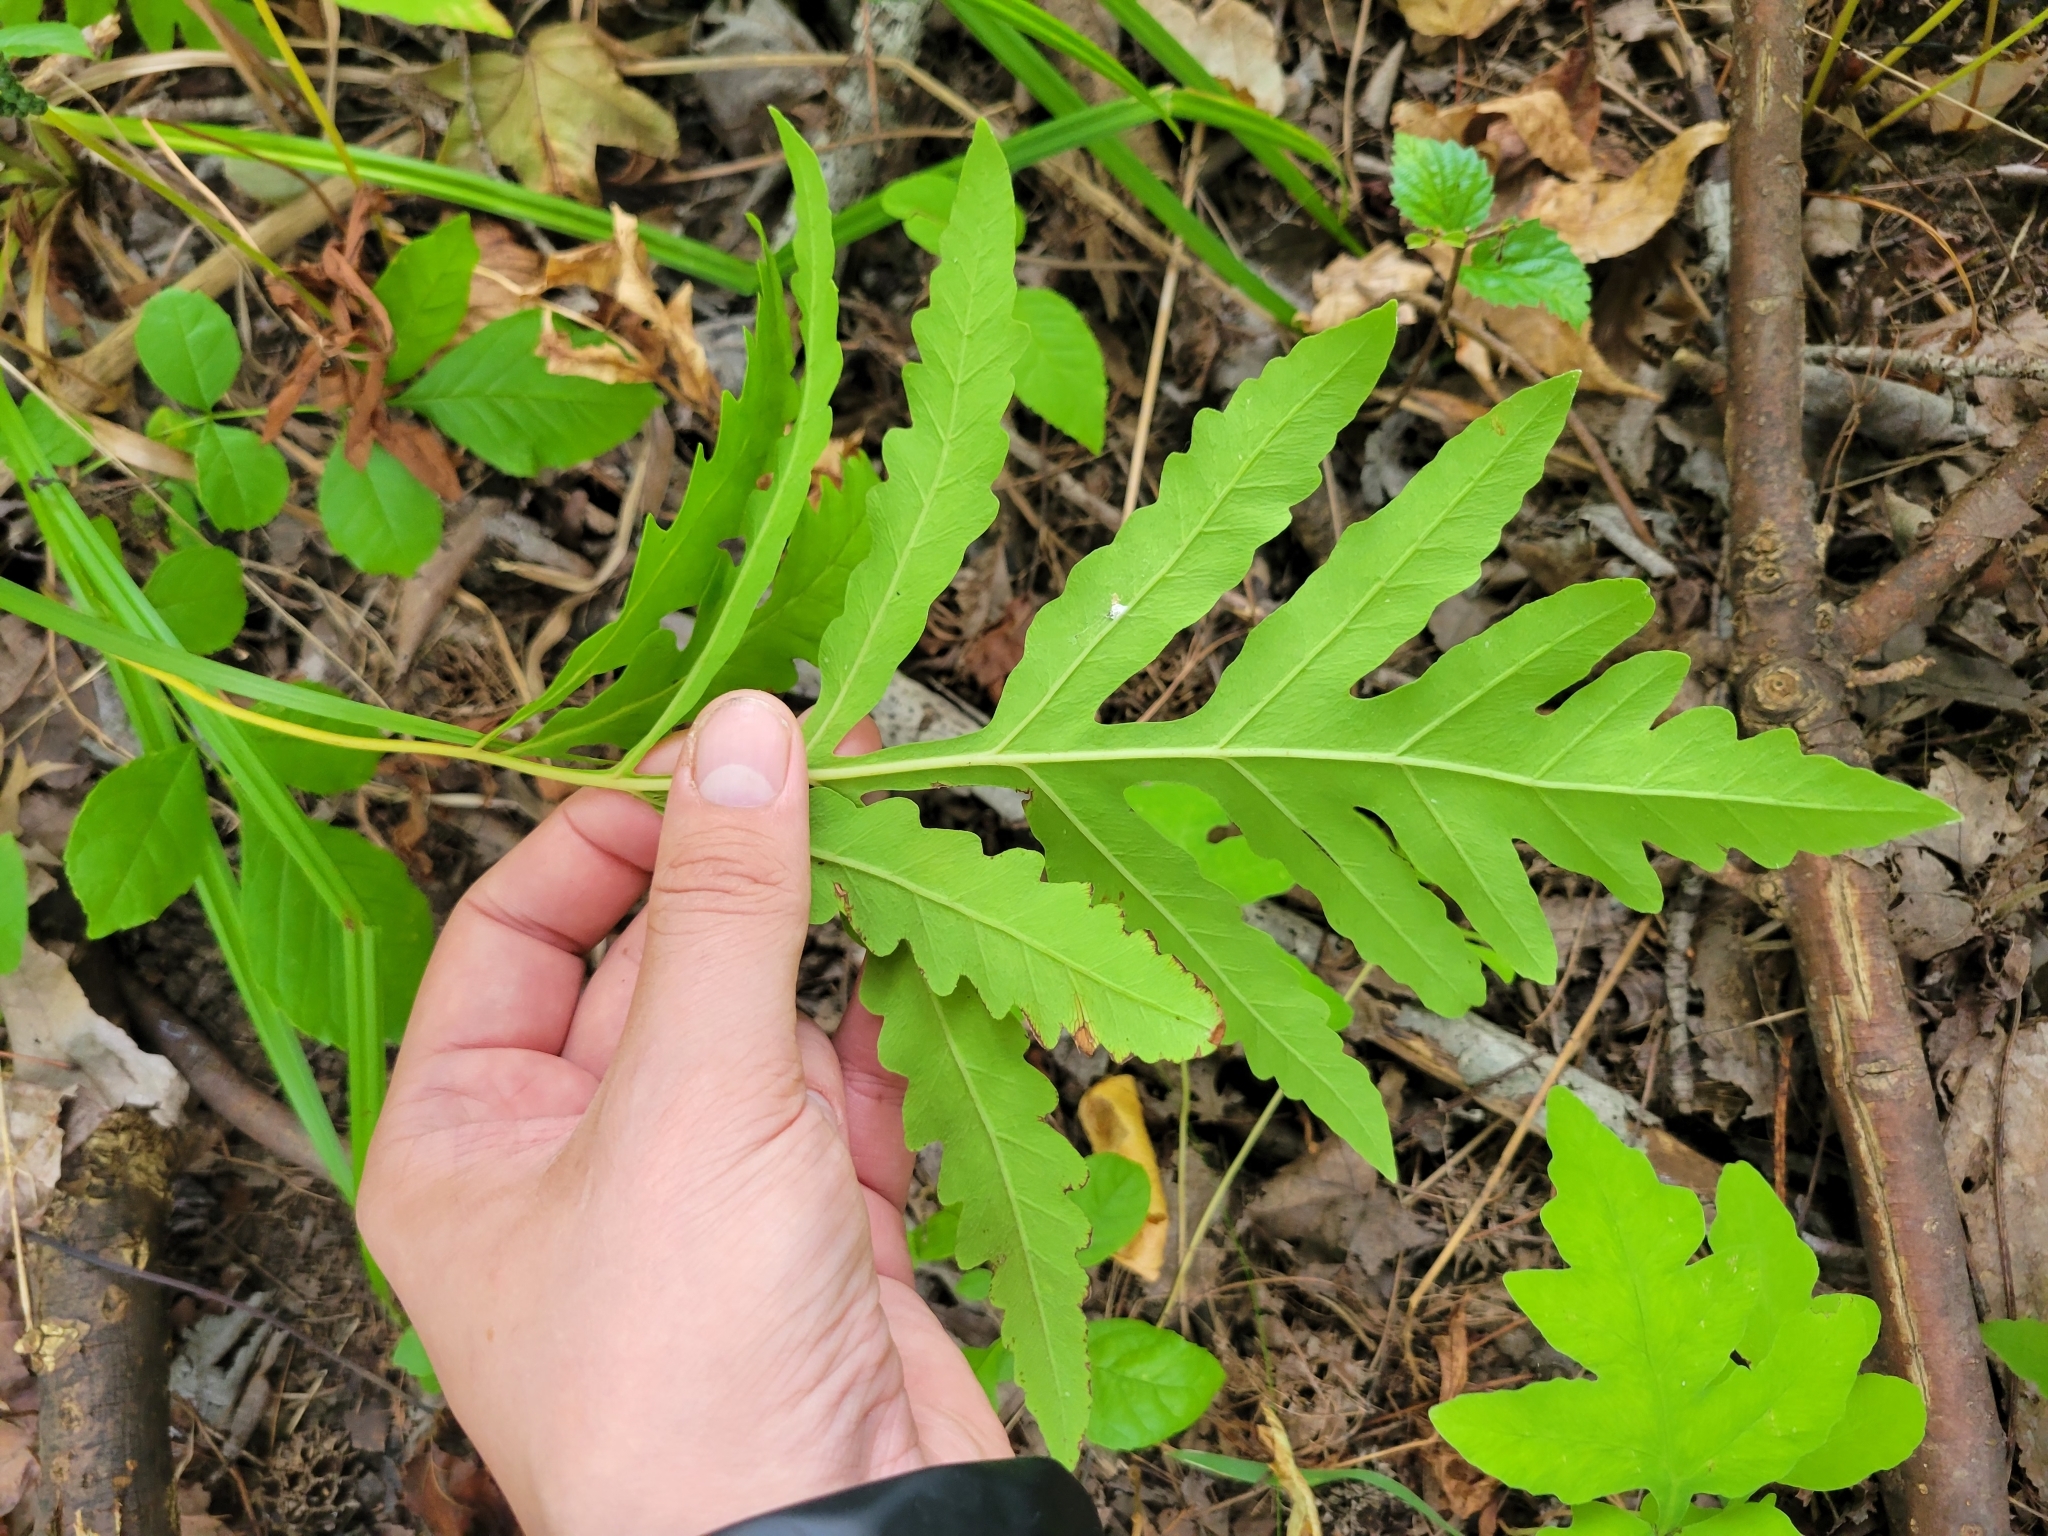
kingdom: Plantae
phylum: Tracheophyta
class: Polypodiopsida
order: Polypodiales
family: Onocleaceae
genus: Onoclea
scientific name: Onoclea sensibilis
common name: Sensitive fern
